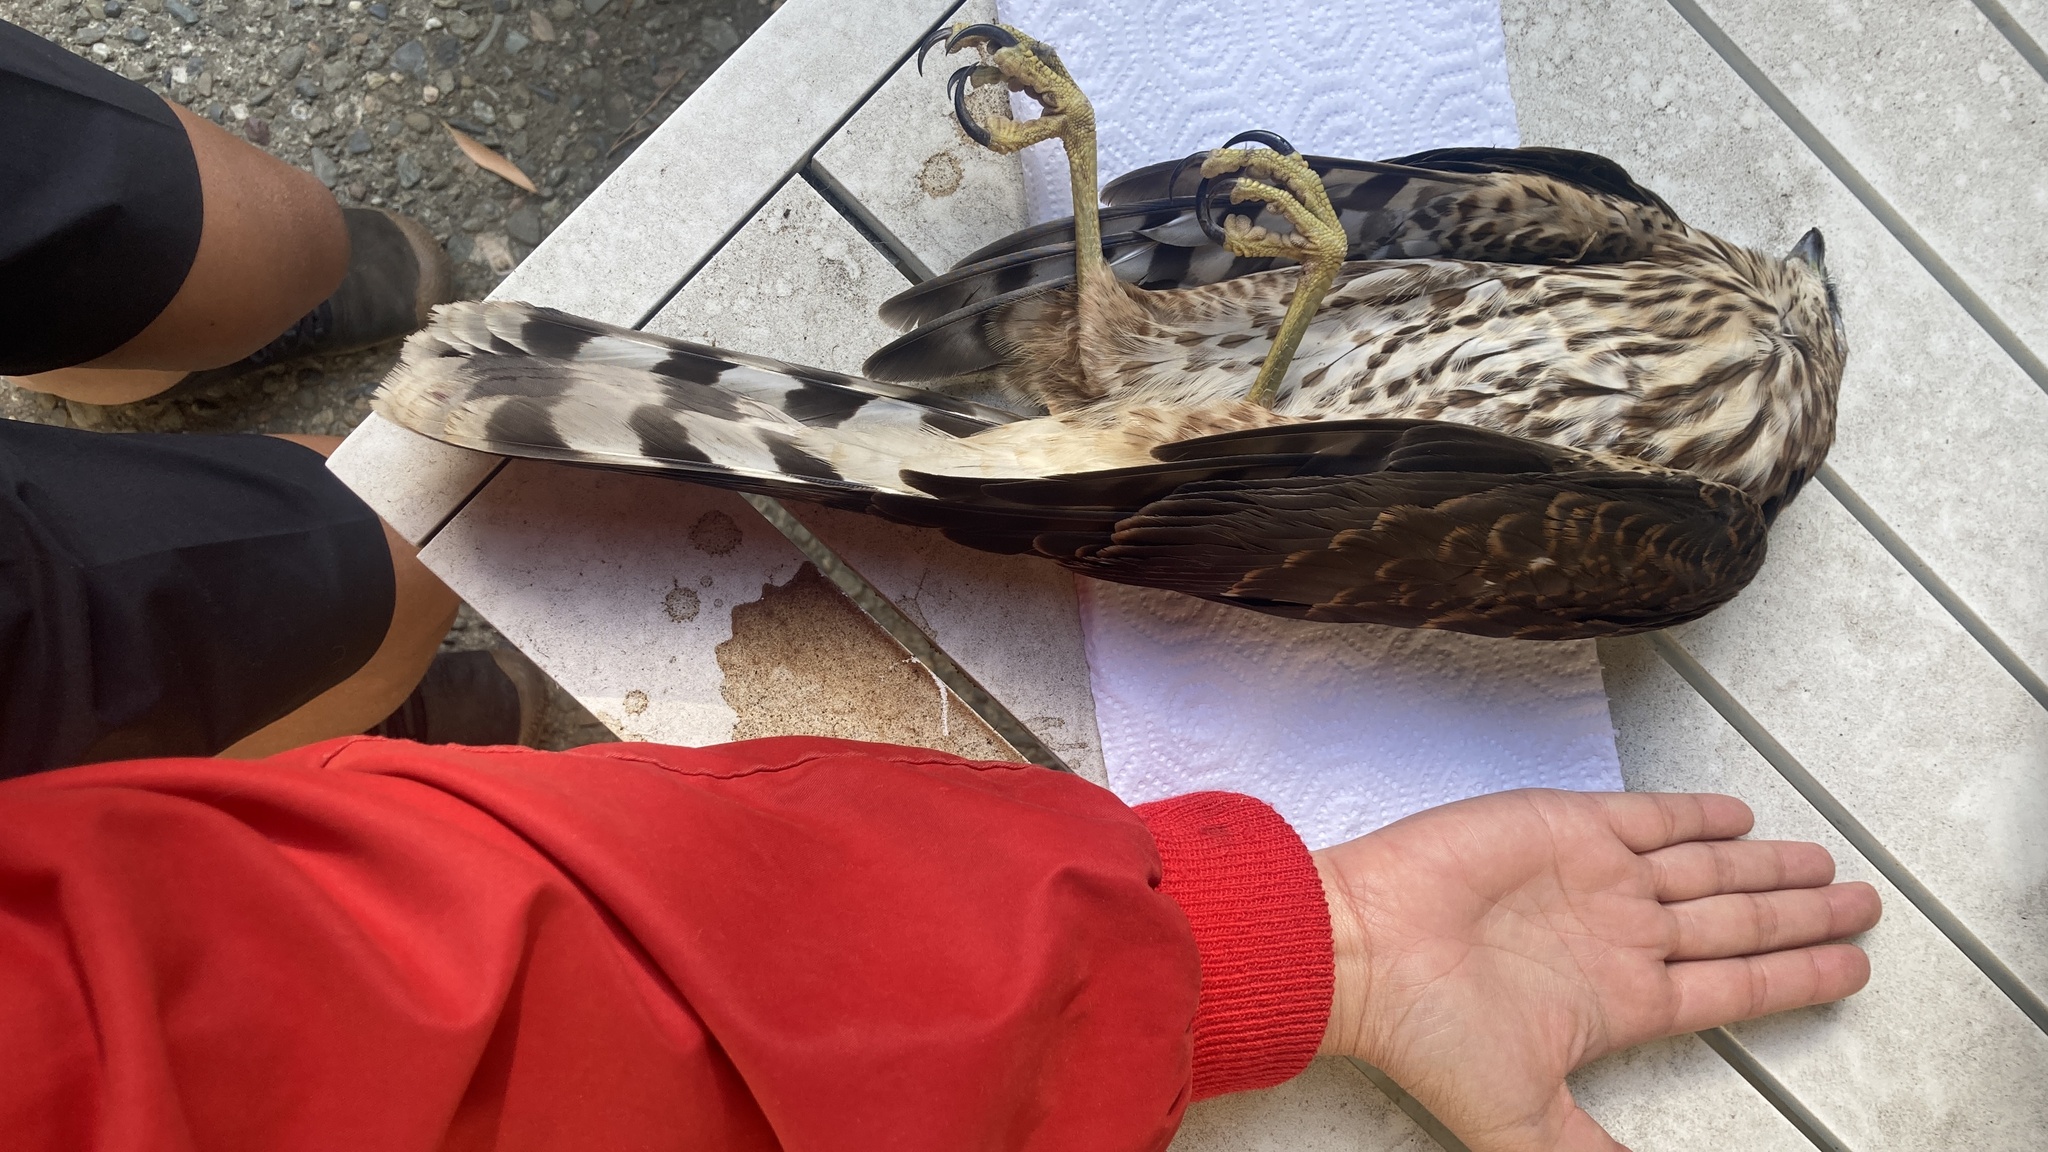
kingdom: Animalia
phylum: Chordata
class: Aves
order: Accipitriformes
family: Accipitridae
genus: Accipiter
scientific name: Accipiter cooperii
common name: Cooper's hawk
